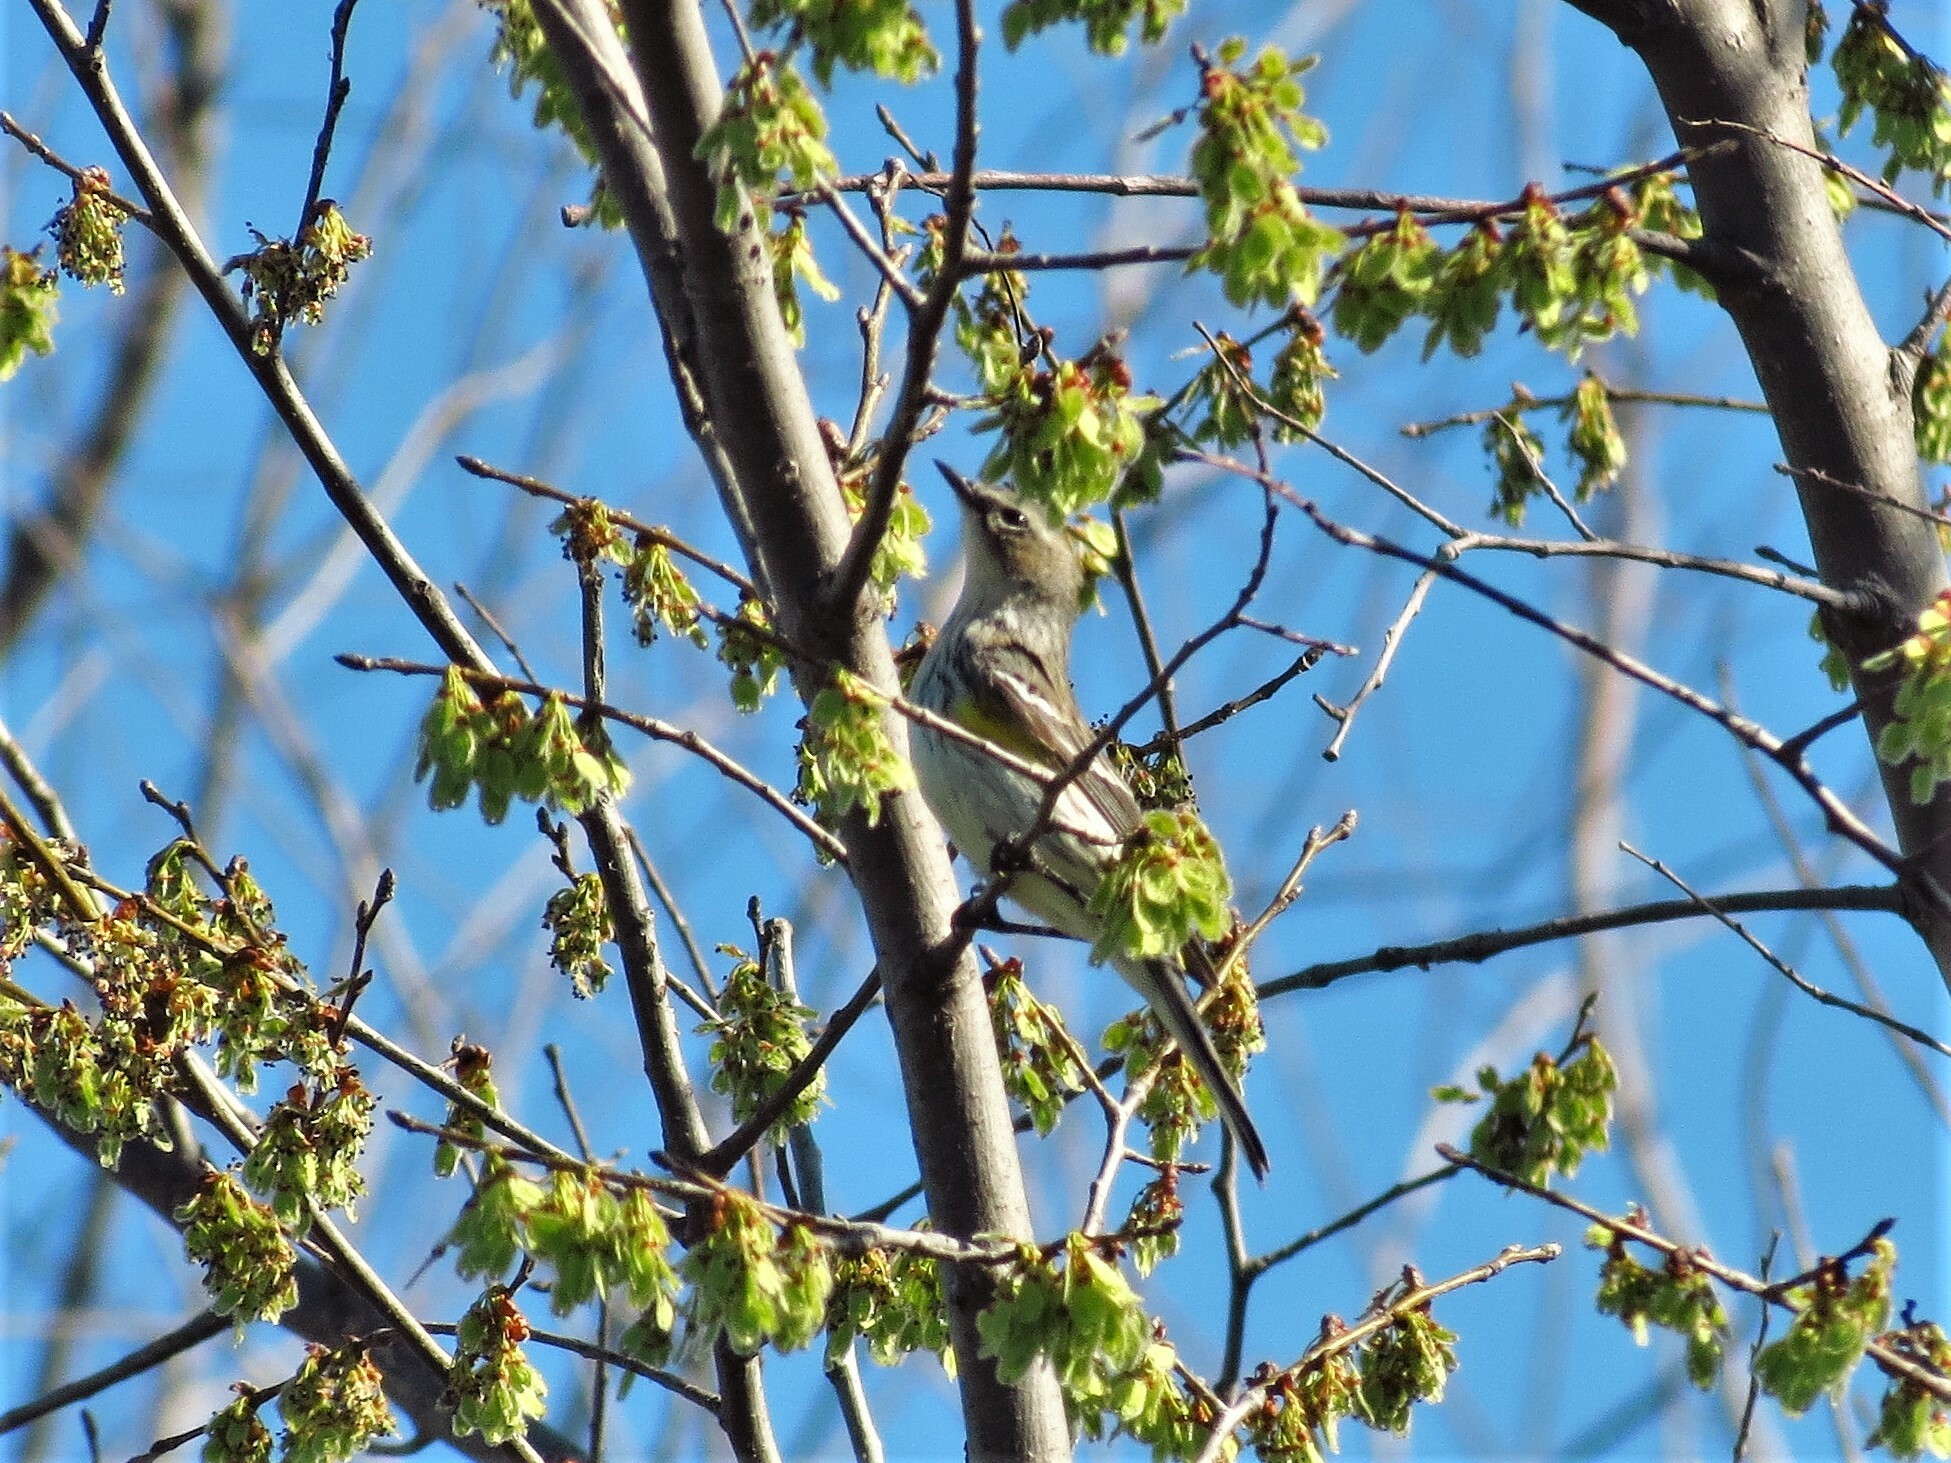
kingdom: Animalia
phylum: Chordata
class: Aves
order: Passeriformes
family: Parulidae
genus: Setophaga
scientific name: Setophaga coronata
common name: Myrtle warbler
